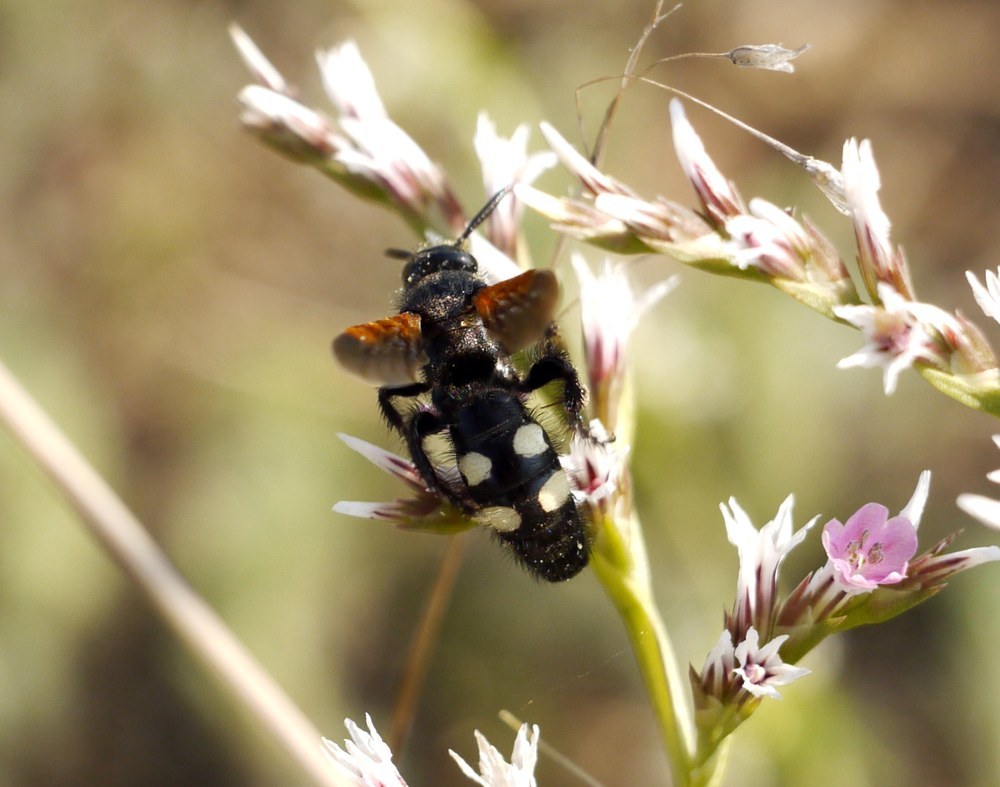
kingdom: Animalia
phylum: Arthropoda
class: Insecta
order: Hymenoptera
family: Vespidae
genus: Vespa
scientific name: Vespa sexmaculata
